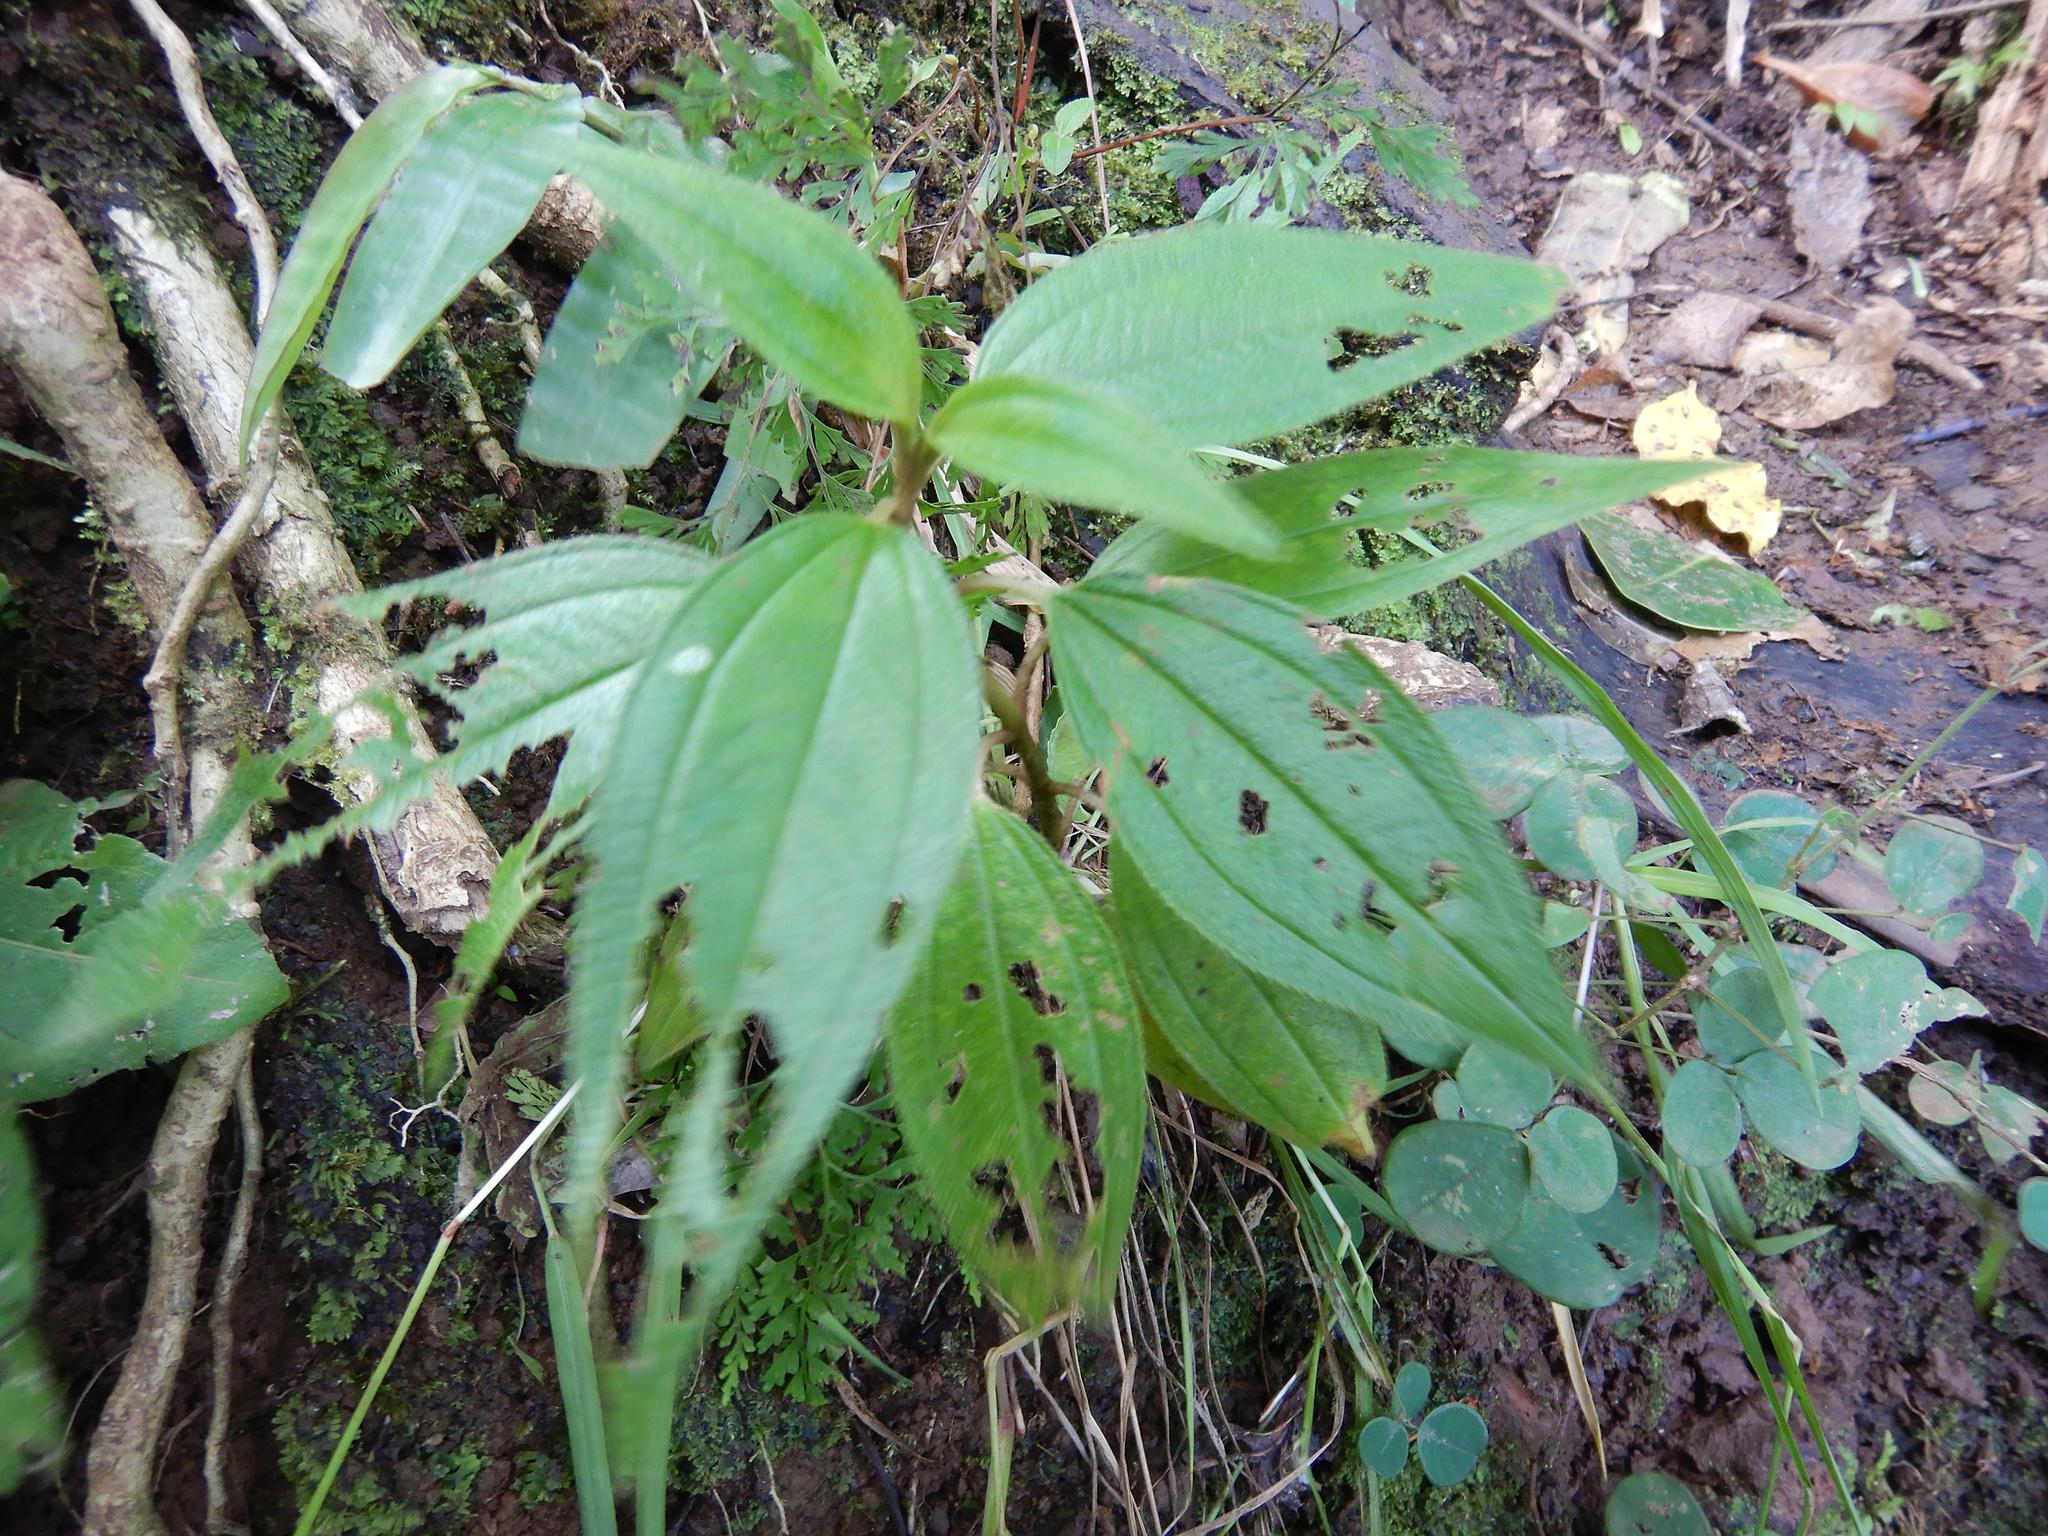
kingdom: Plantae
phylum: Tracheophyta
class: Magnoliopsida
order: Myrtales
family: Melastomataceae
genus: Melastoma
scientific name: Melastoma denticulatum
